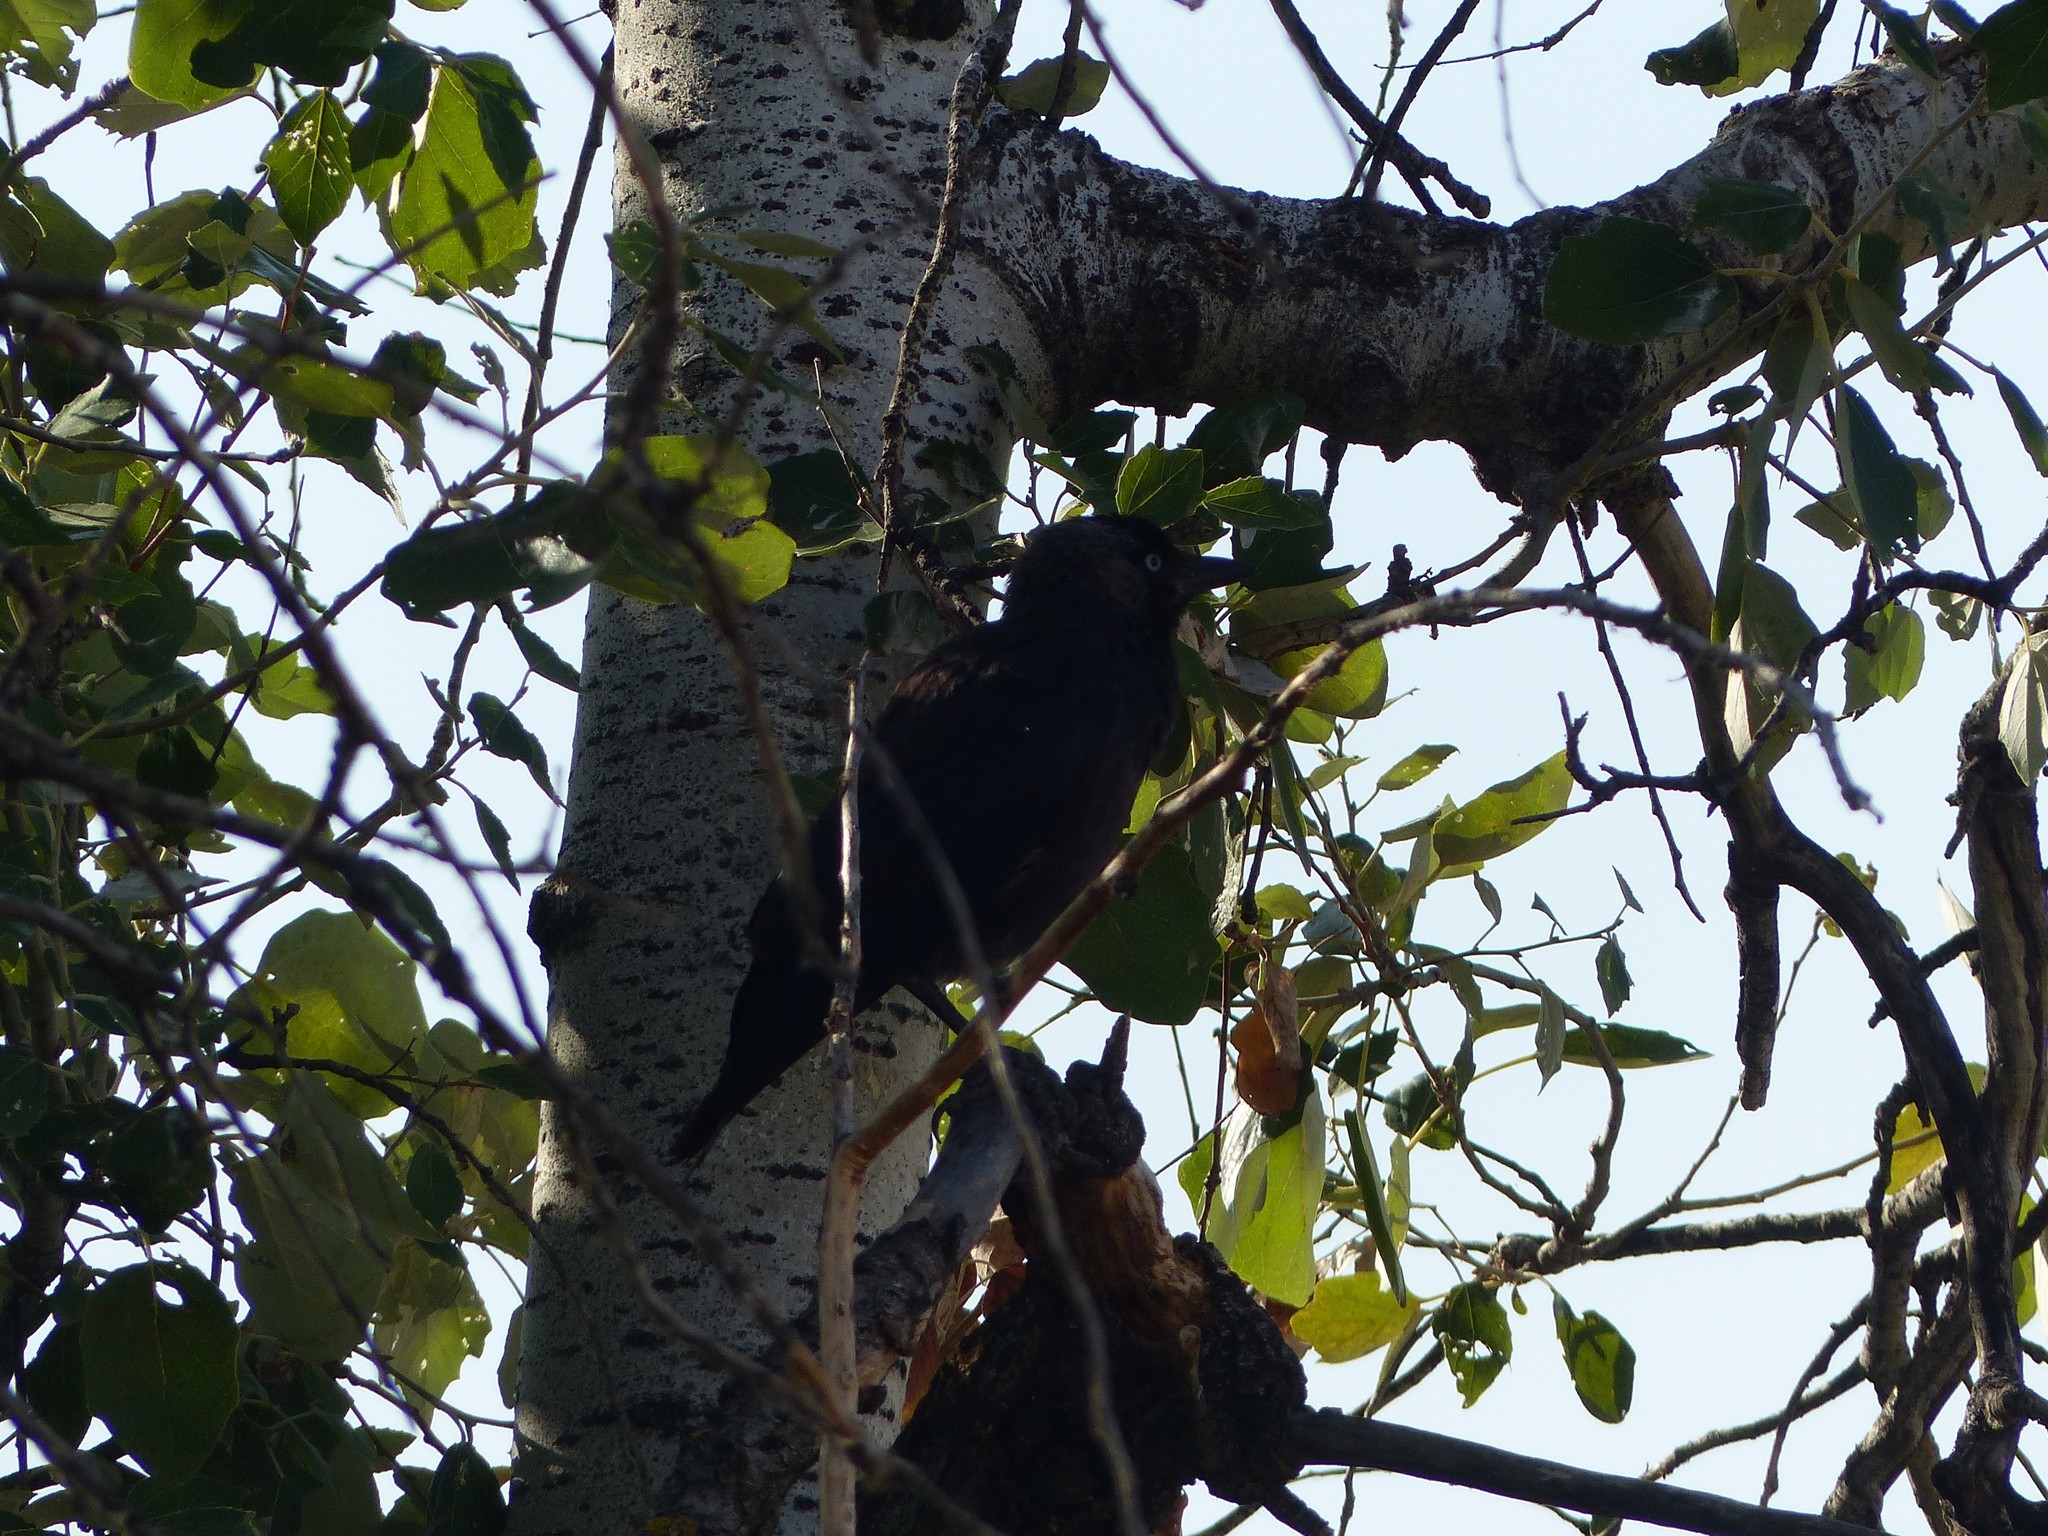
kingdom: Animalia
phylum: Chordata
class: Aves
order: Passeriformes
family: Corvidae
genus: Coloeus
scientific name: Coloeus monedula
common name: Western jackdaw
